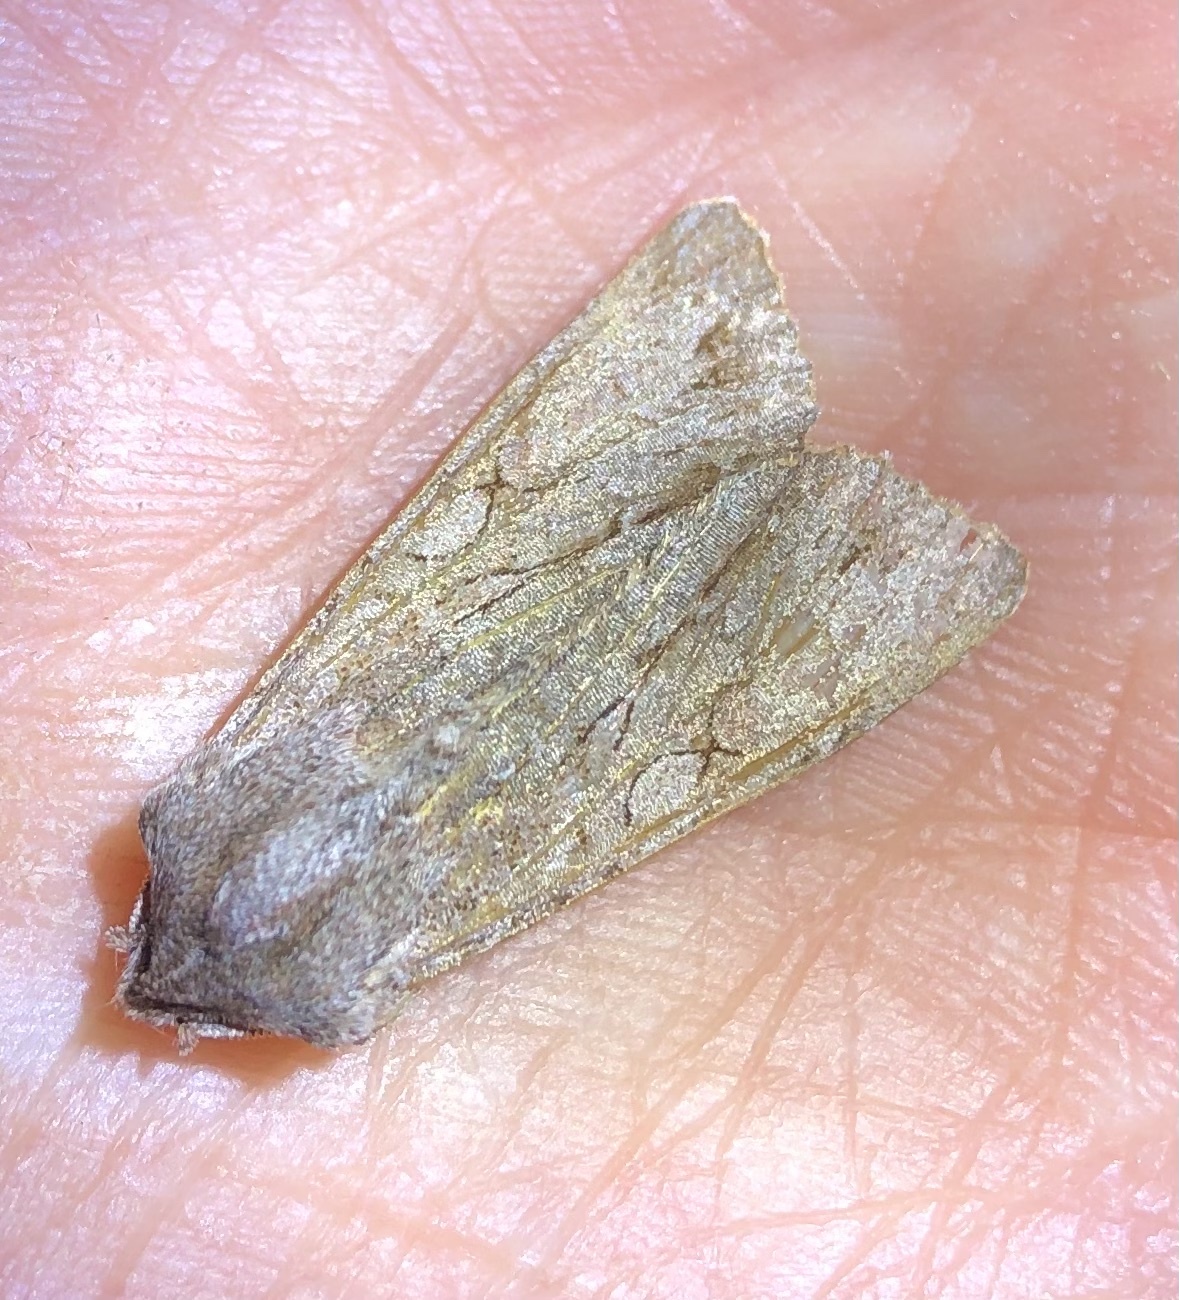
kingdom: Animalia
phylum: Arthropoda
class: Insecta
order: Lepidoptera
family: Noctuidae
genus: Ichneutica
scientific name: Ichneutica
